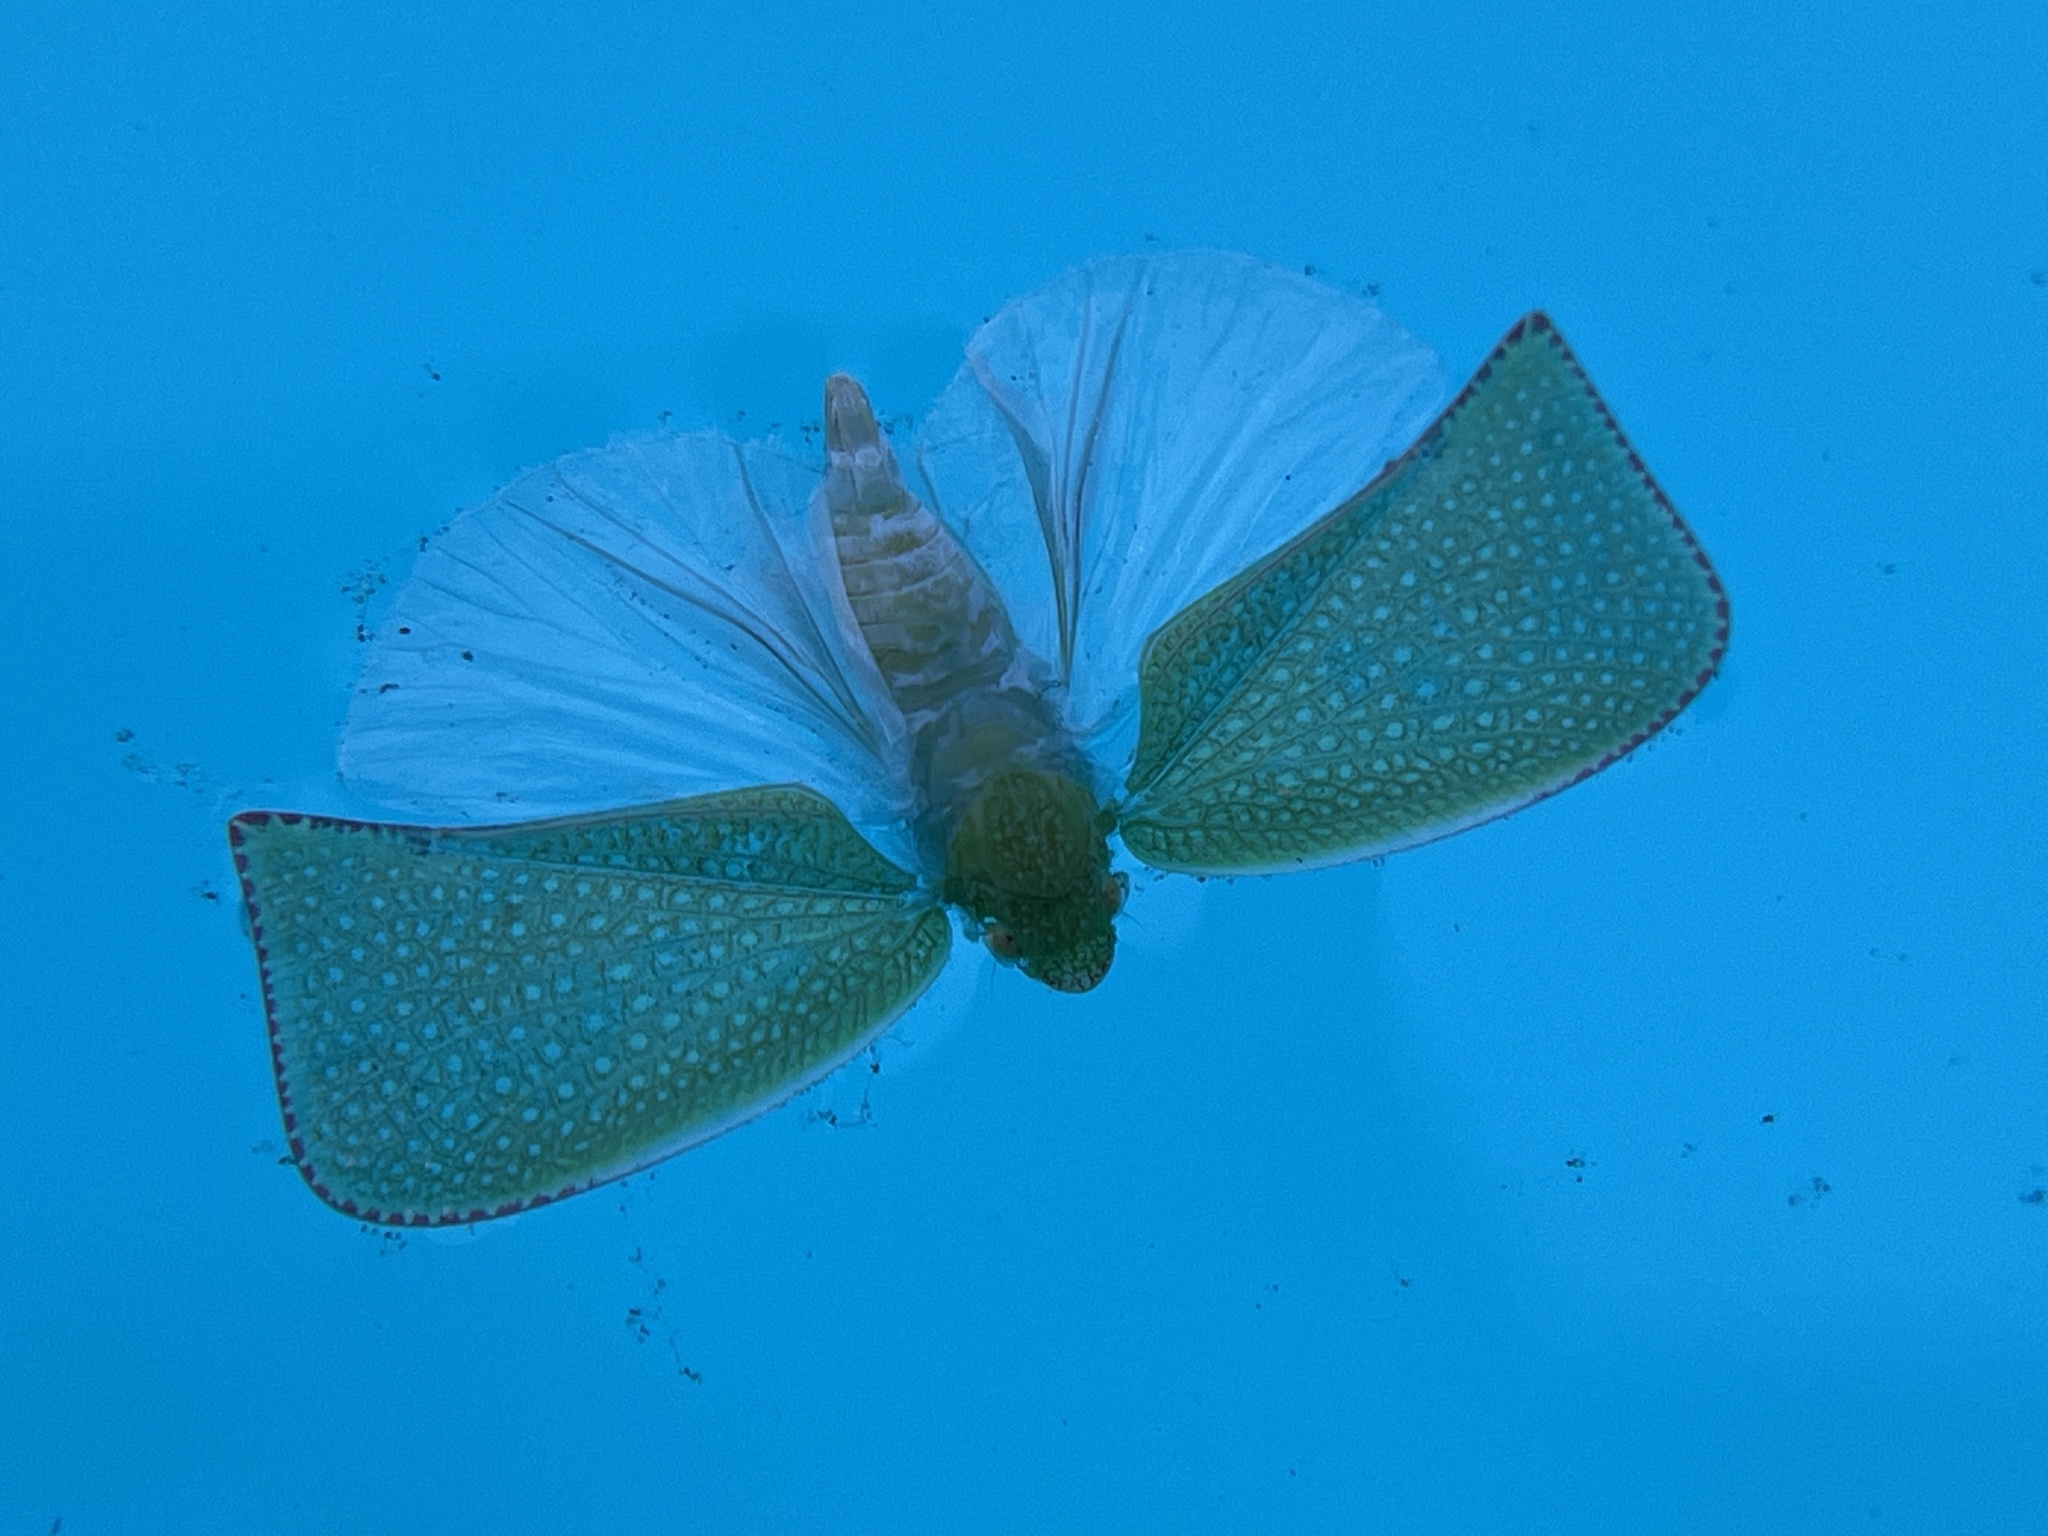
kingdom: Animalia
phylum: Arthropoda
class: Insecta
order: Hemiptera
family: Flatidae
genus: Siphanta
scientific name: Siphanta acuta
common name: Torpedo bug
